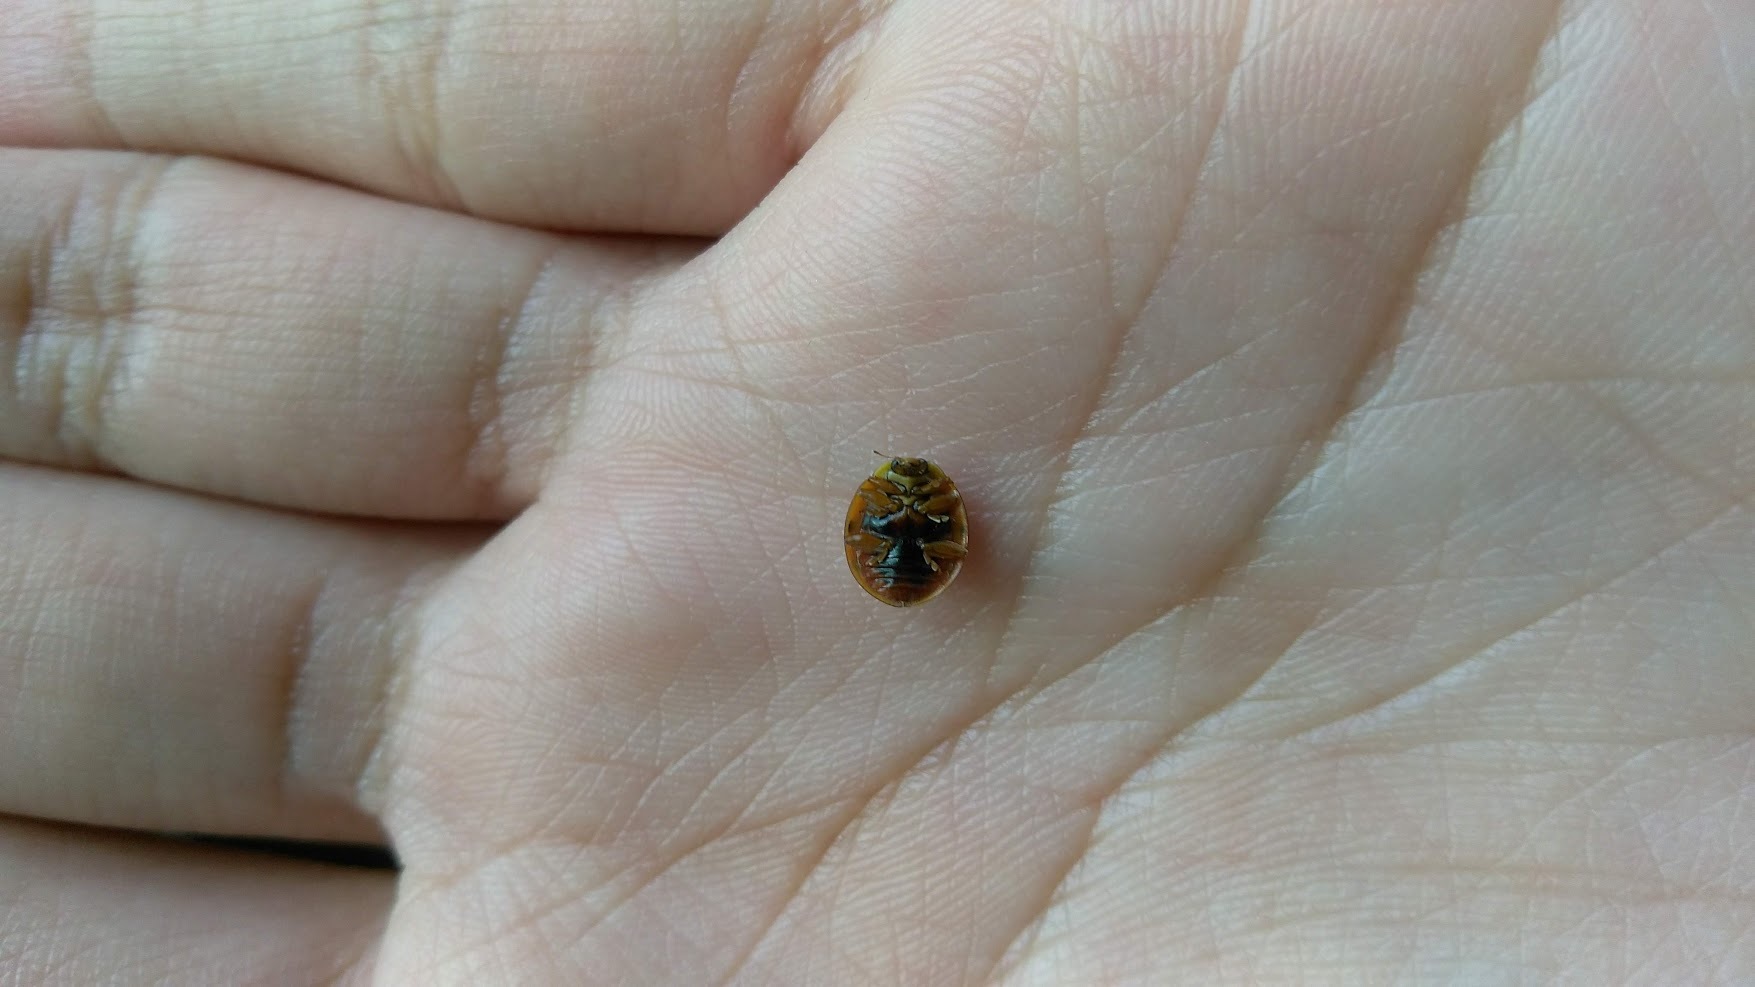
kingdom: Animalia
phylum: Arthropoda
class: Insecta
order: Coleoptera
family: Coccinellidae
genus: Harmonia
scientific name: Harmonia axyridis
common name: Harlequin ladybird
